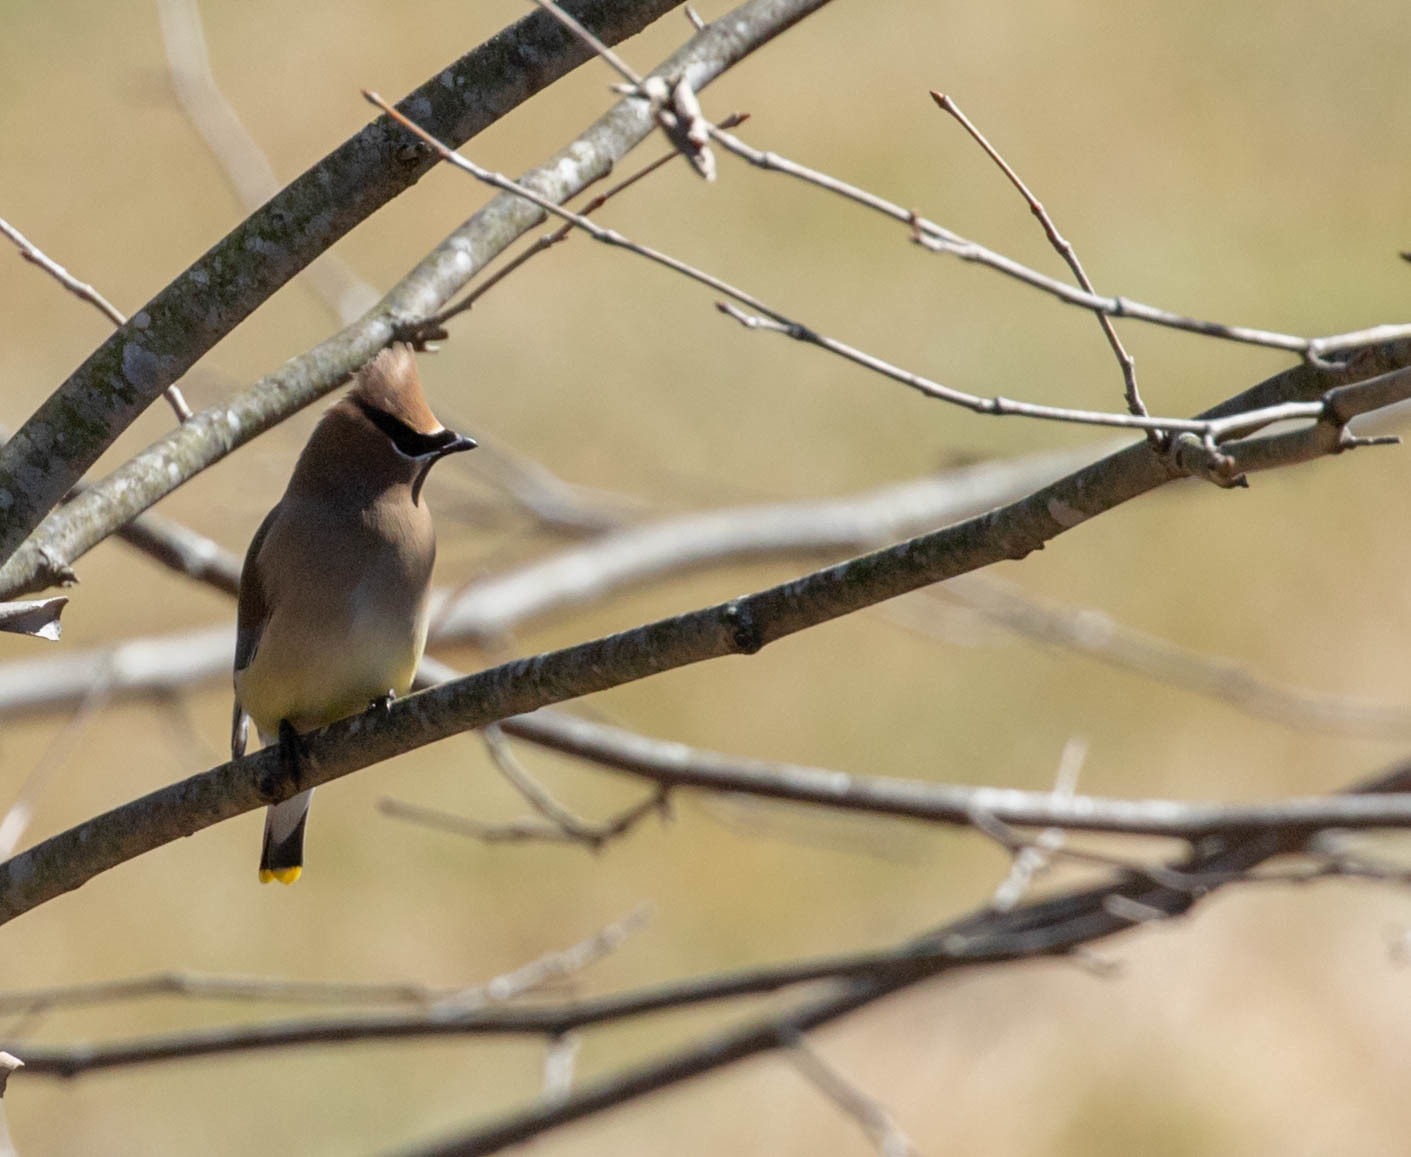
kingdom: Animalia
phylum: Chordata
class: Aves
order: Passeriformes
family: Bombycillidae
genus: Bombycilla
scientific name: Bombycilla cedrorum
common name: Cedar waxwing
